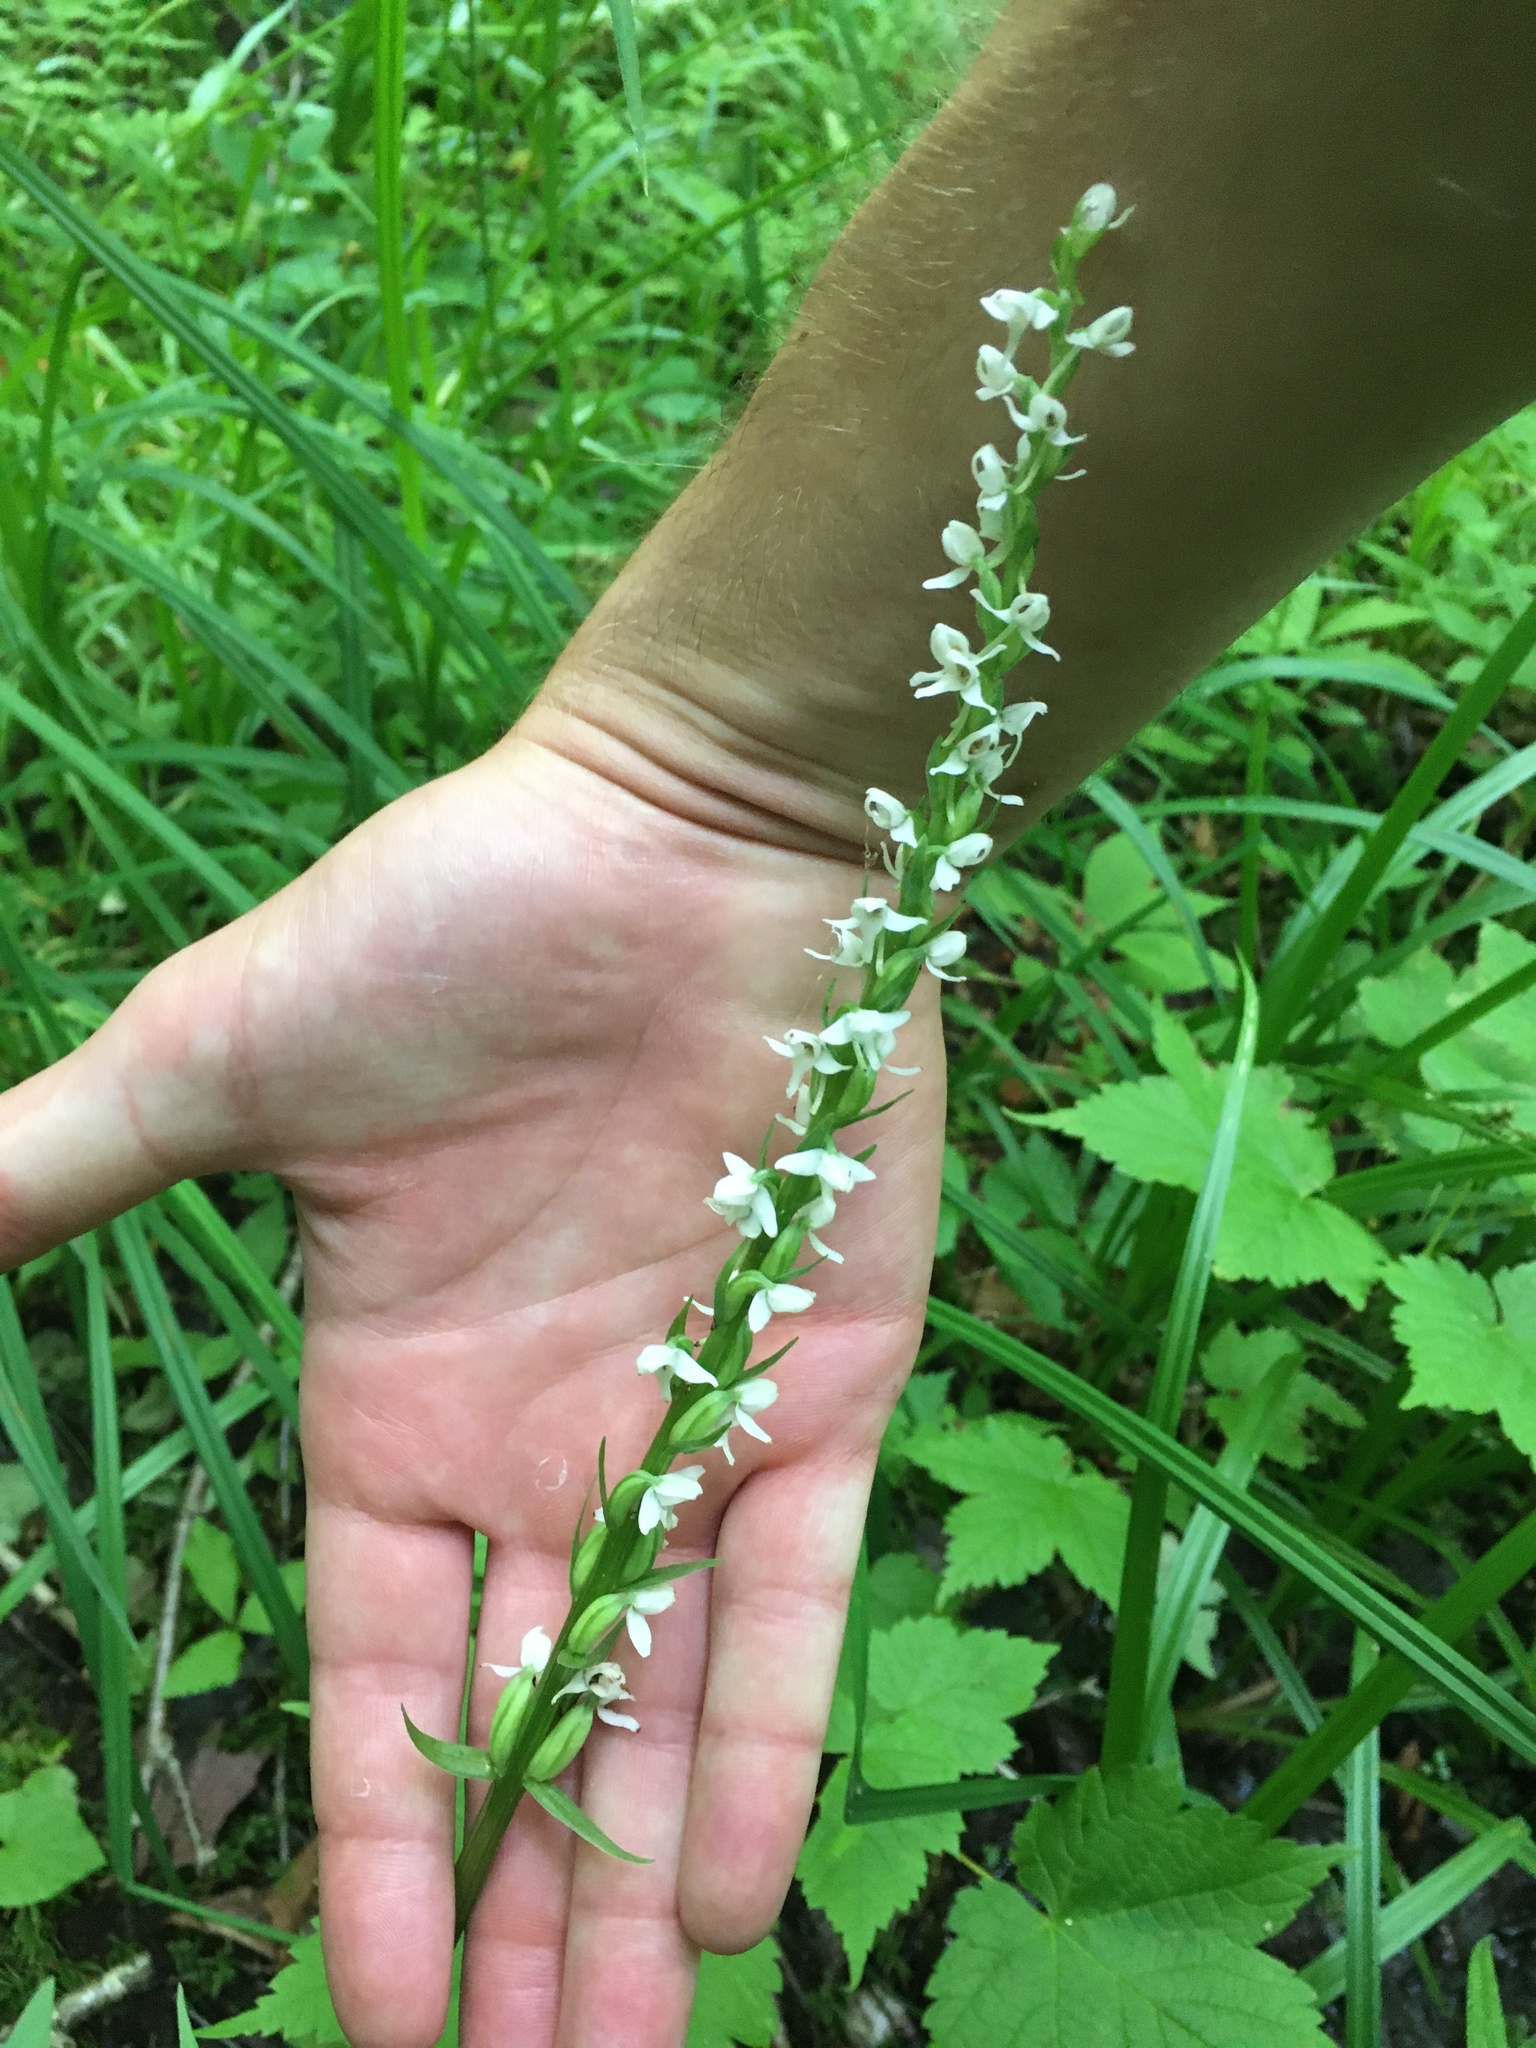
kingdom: Plantae
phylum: Tracheophyta
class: Liliopsida
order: Asparagales
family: Orchidaceae
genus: Platanthera
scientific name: Platanthera dilatata
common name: Bog candles
